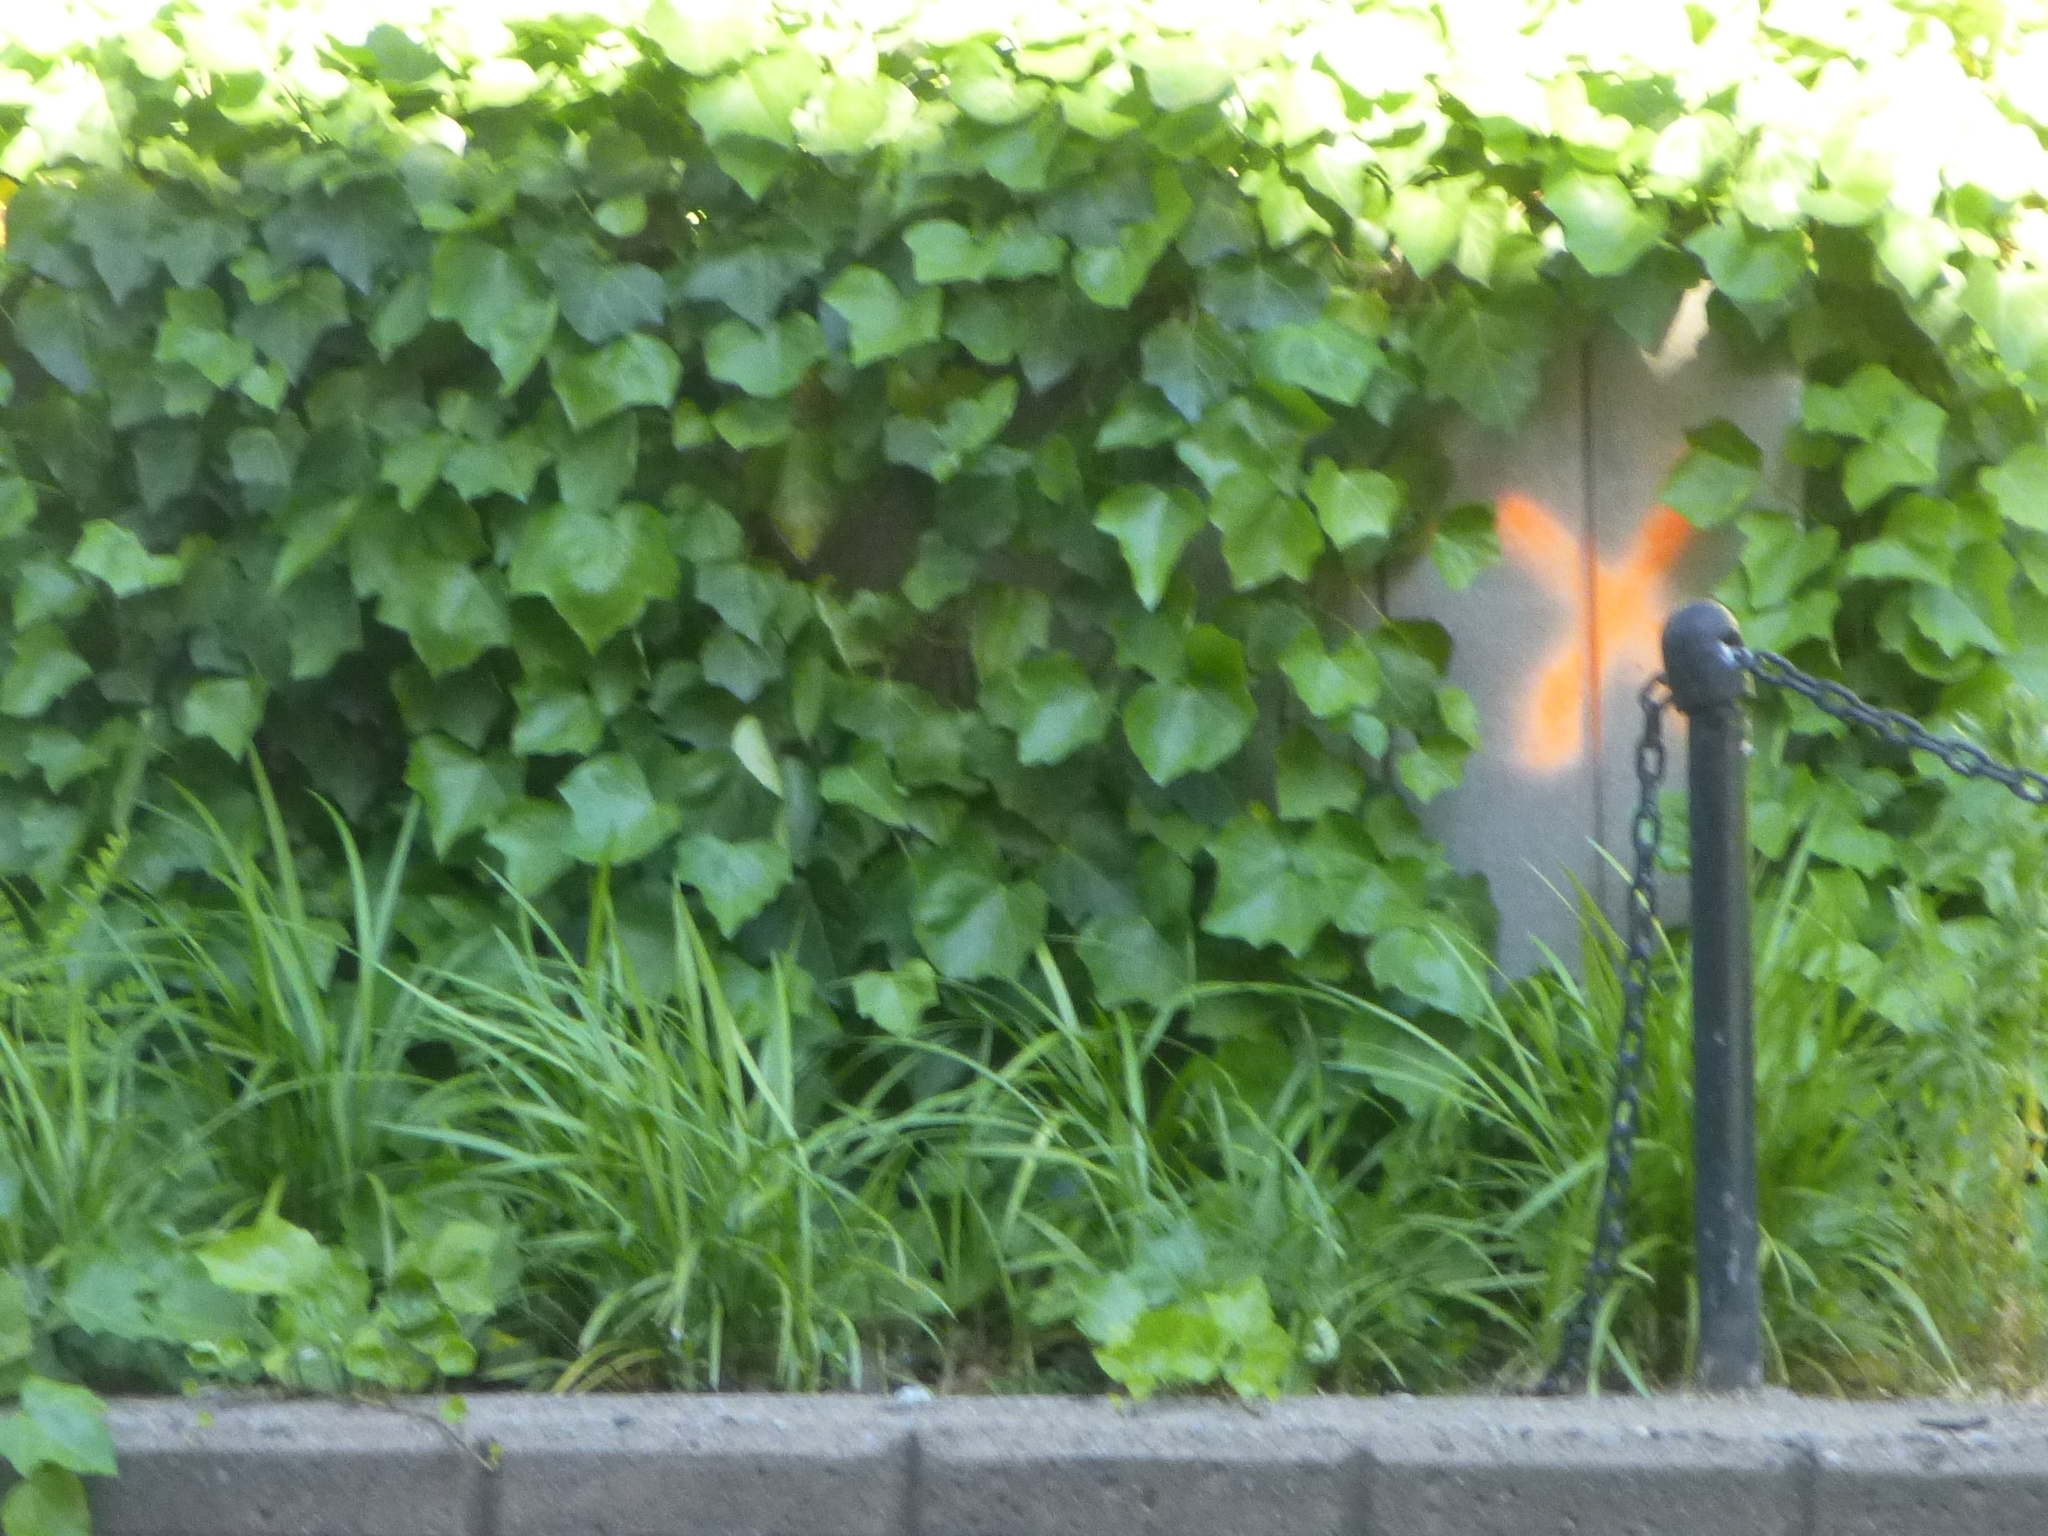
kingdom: Plantae
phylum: Tracheophyta
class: Magnoliopsida
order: Apiales
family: Araliaceae
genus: Hedera
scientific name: Hedera helix
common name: Ivy
